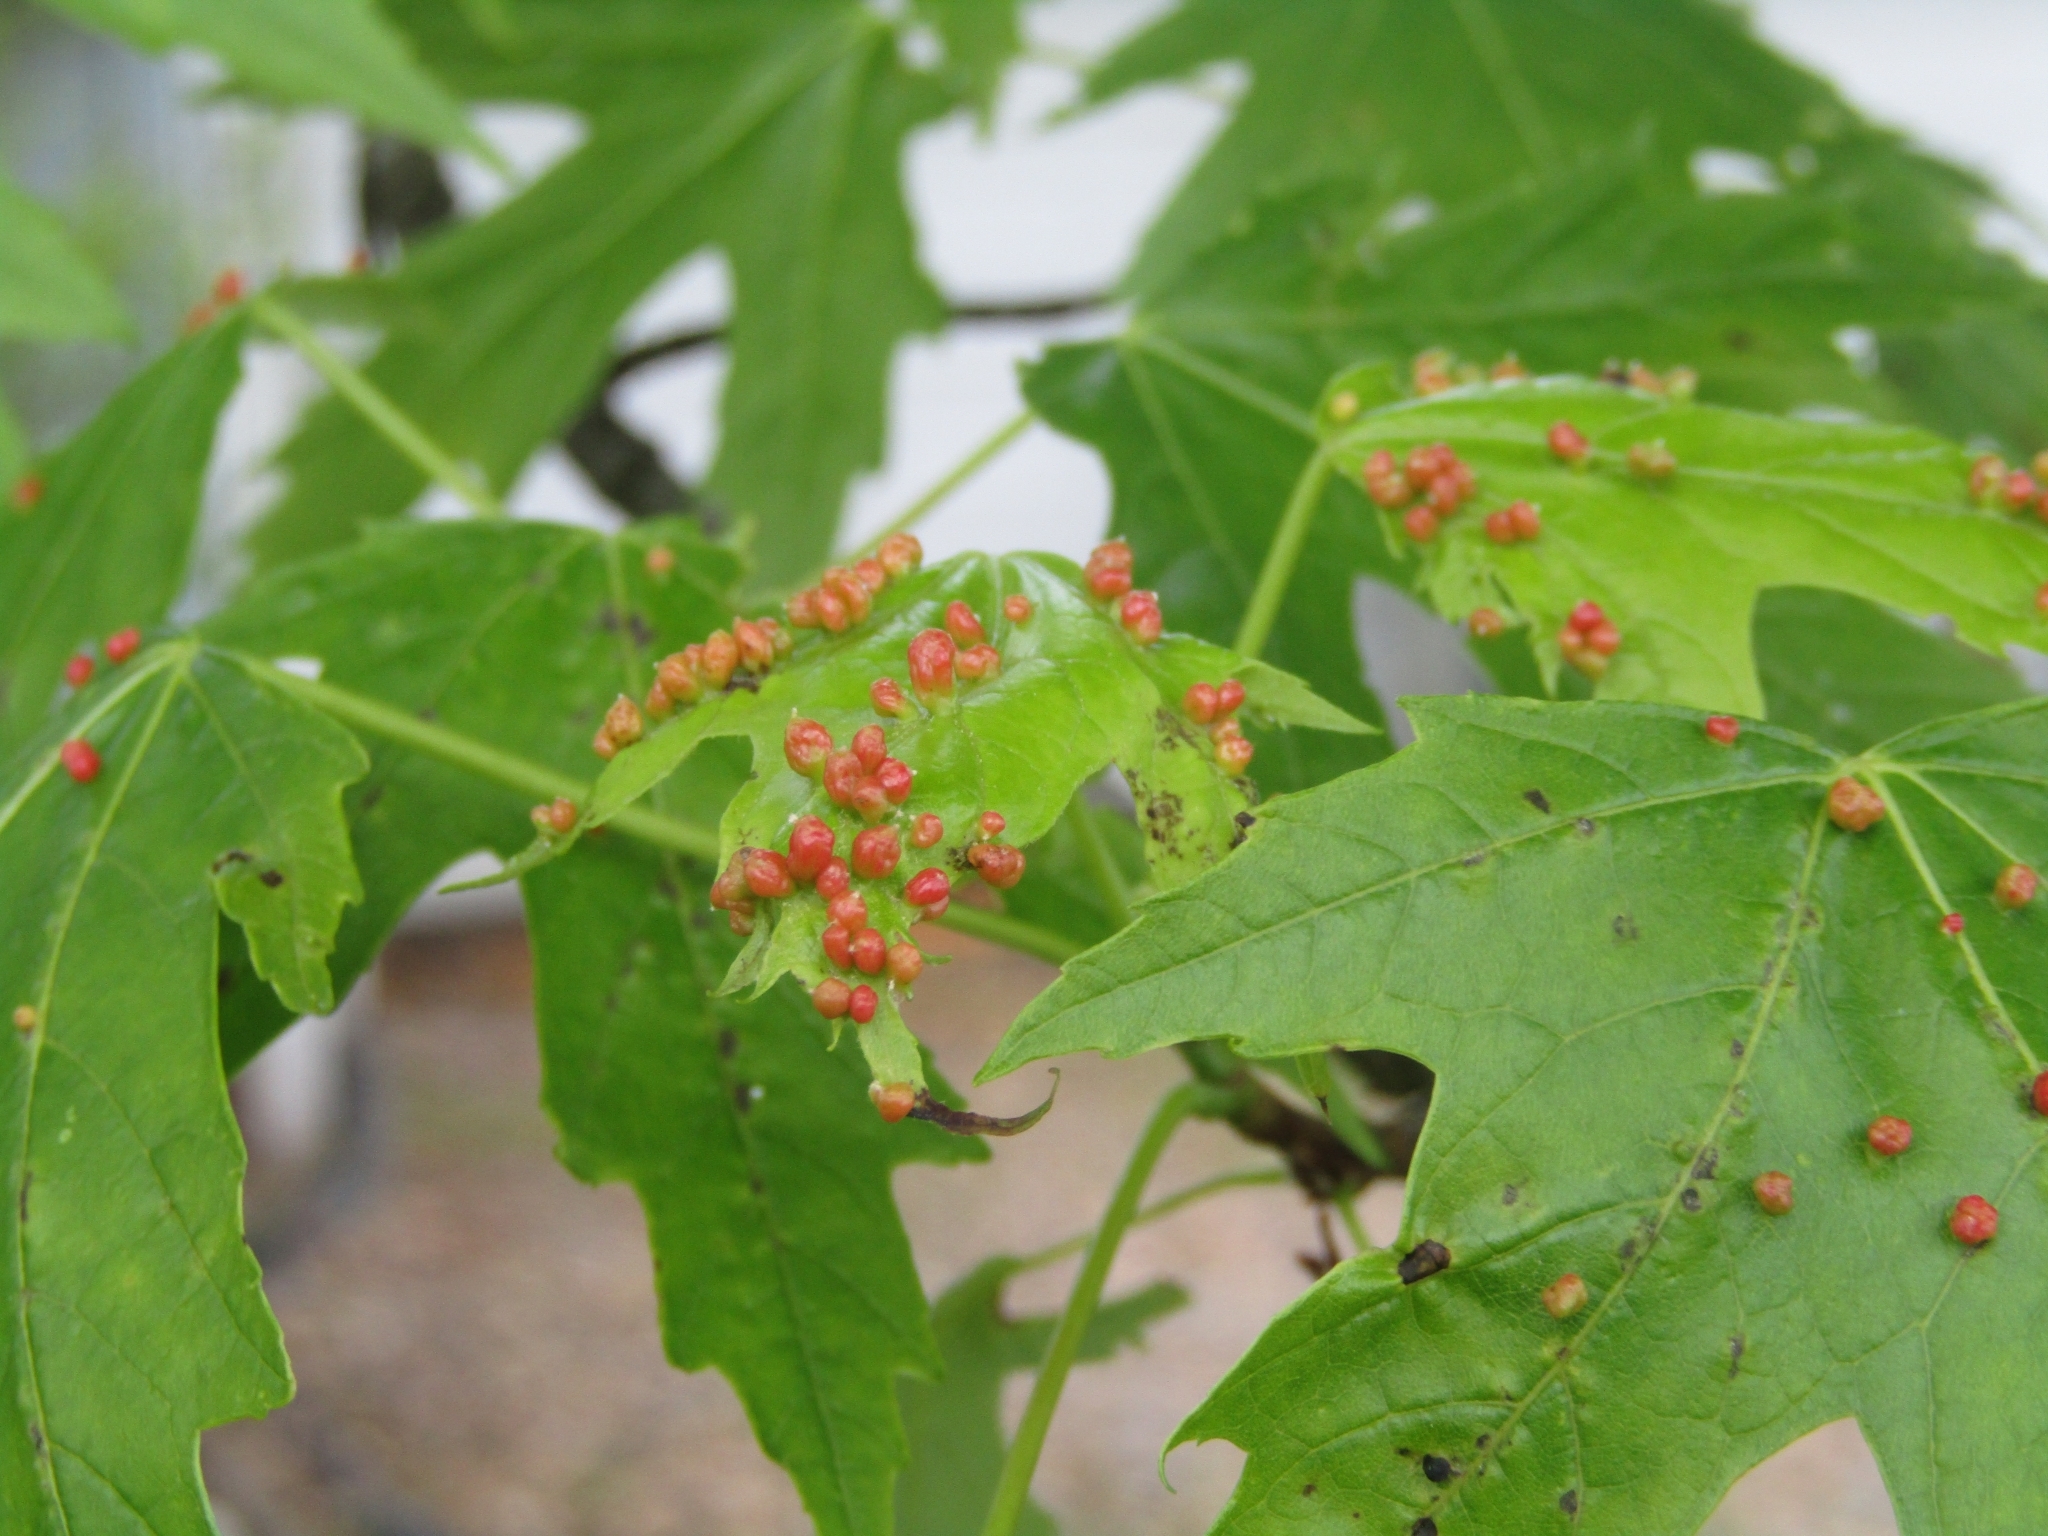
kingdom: Animalia
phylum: Arthropoda
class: Arachnida
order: Trombidiformes
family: Eriophyidae
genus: Vasates
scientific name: Vasates quadripedes
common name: Maple bladder gall mite
